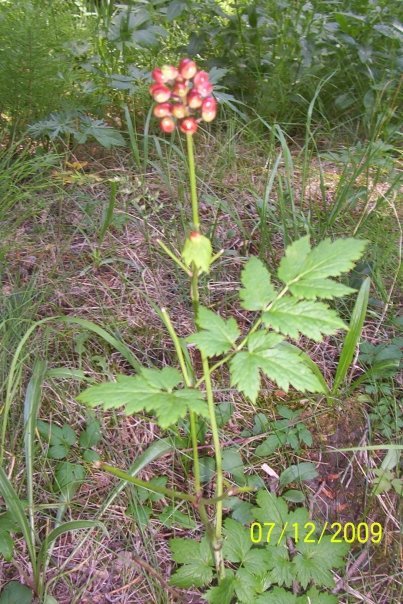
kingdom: Plantae
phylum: Tracheophyta
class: Magnoliopsida
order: Ranunculales
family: Ranunculaceae
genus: Actaea
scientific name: Actaea rubra
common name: Red baneberry
